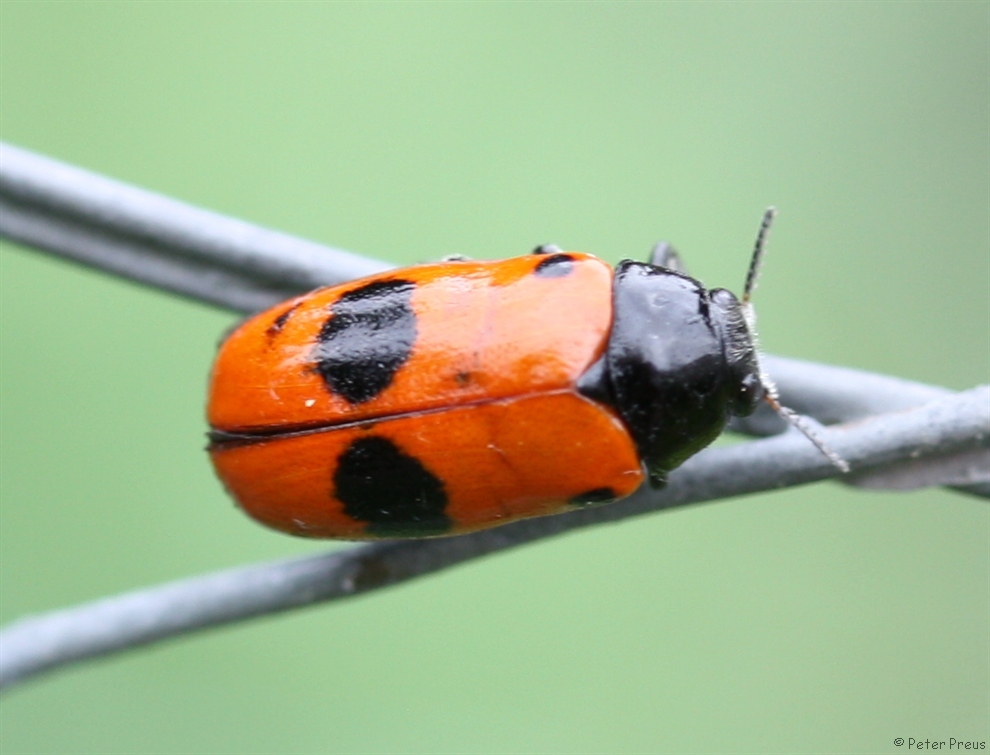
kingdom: Animalia
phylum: Arthropoda
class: Insecta
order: Coleoptera
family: Chrysomelidae
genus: Clytra
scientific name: Clytra laeviuscula
